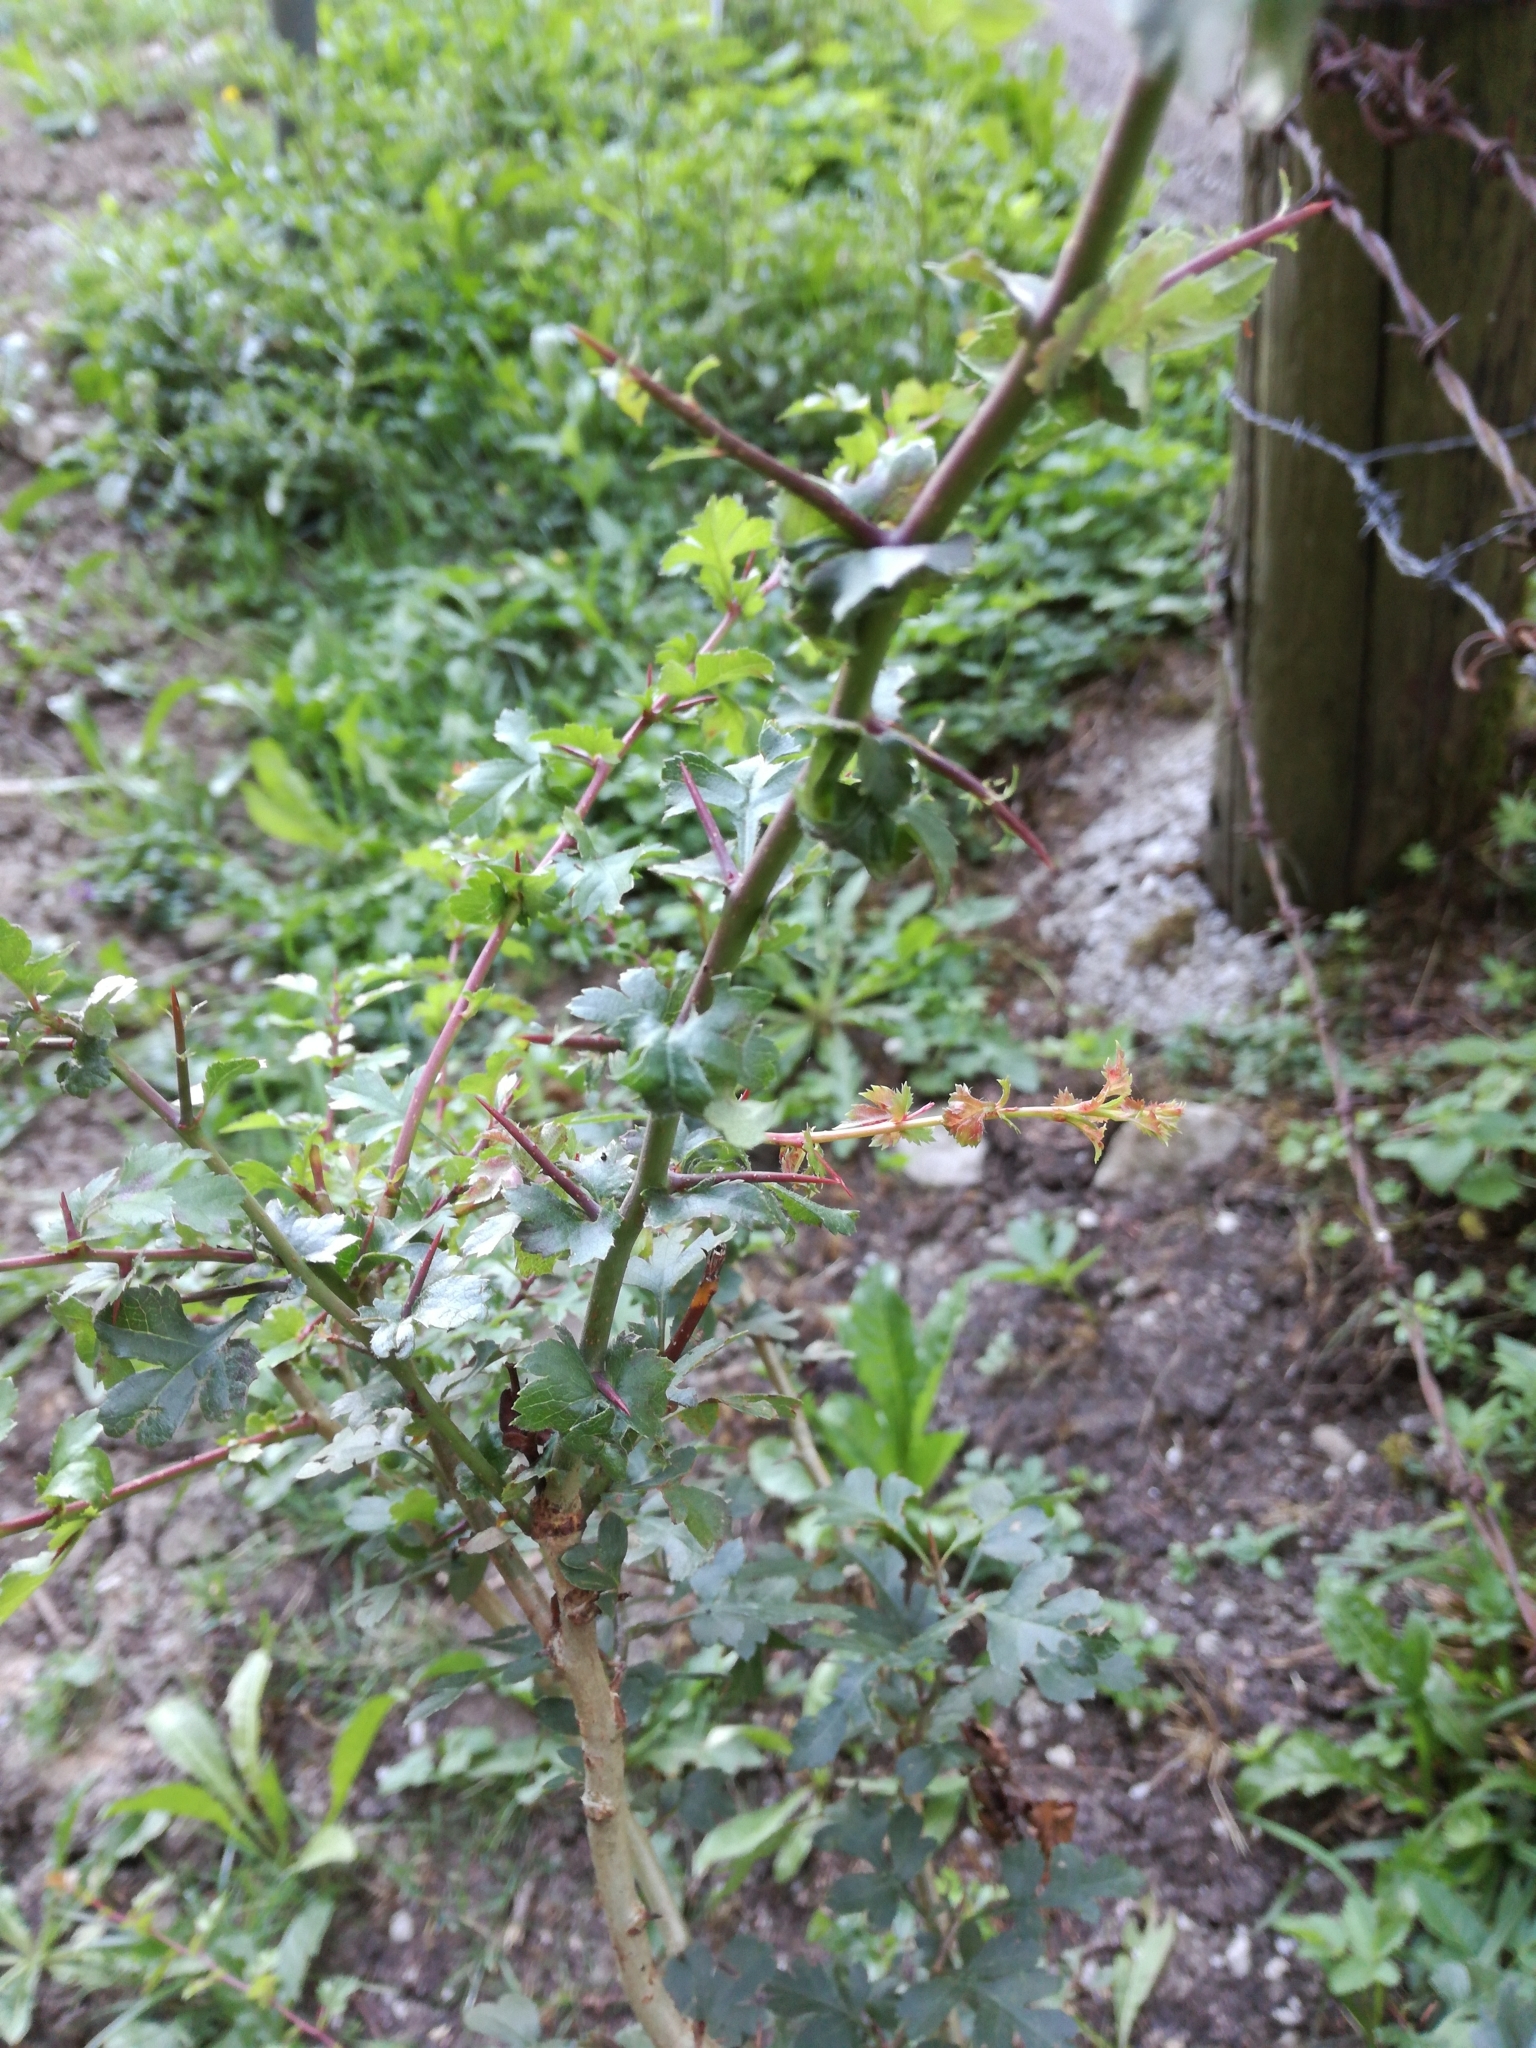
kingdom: Plantae
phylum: Tracheophyta
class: Magnoliopsida
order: Rosales
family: Rosaceae
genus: Crataegus
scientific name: Crataegus monogyna
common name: Hawthorn
